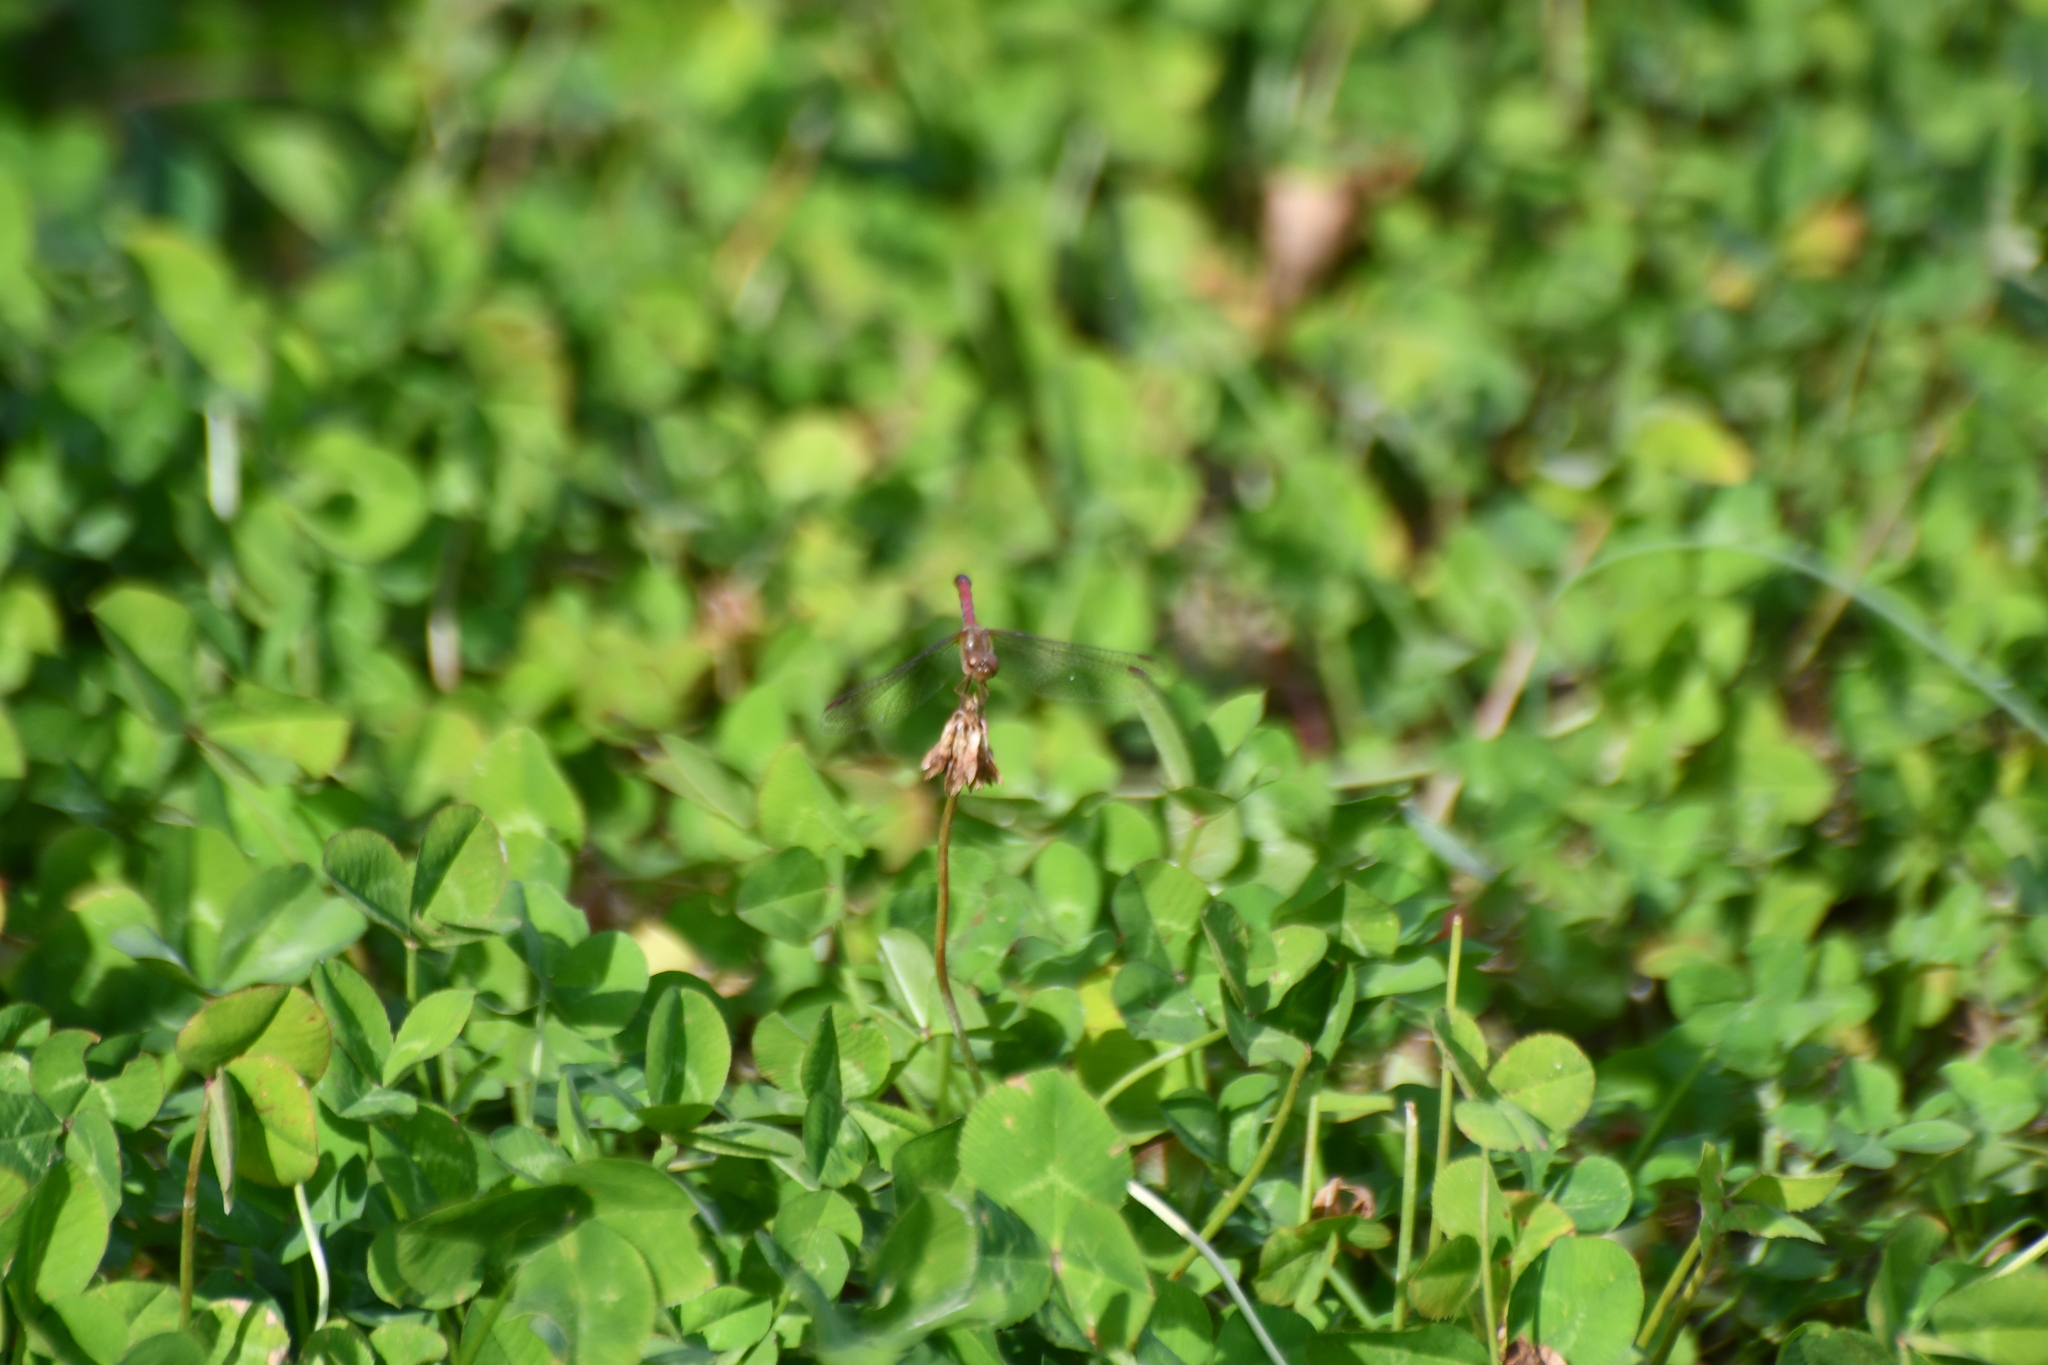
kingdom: Animalia
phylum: Arthropoda
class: Insecta
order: Odonata
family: Libellulidae
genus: Sympetrum
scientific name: Sympetrum vicinum
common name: Autumn meadowhawk
